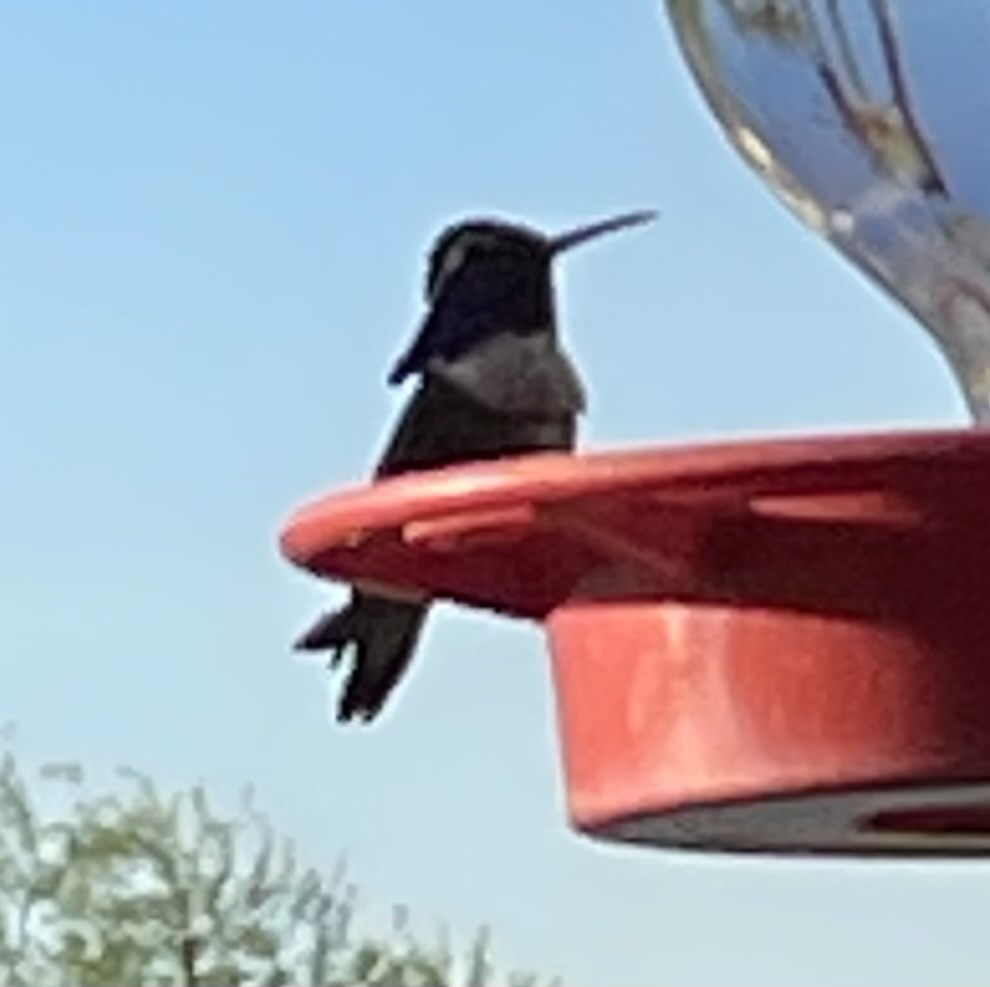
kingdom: Animalia
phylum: Chordata
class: Aves
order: Apodiformes
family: Trochilidae
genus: Calypte
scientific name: Calypte costae
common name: Costa's hummingbird
